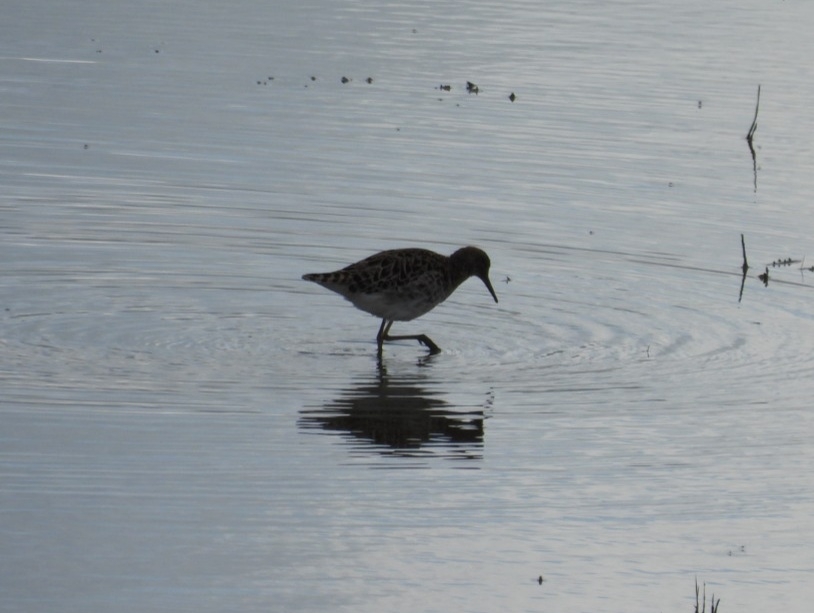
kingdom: Animalia
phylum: Chordata
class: Aves
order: Charadriiformes
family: Scolopacidae
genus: Calidris
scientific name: Calidris pugnax
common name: Ruff
